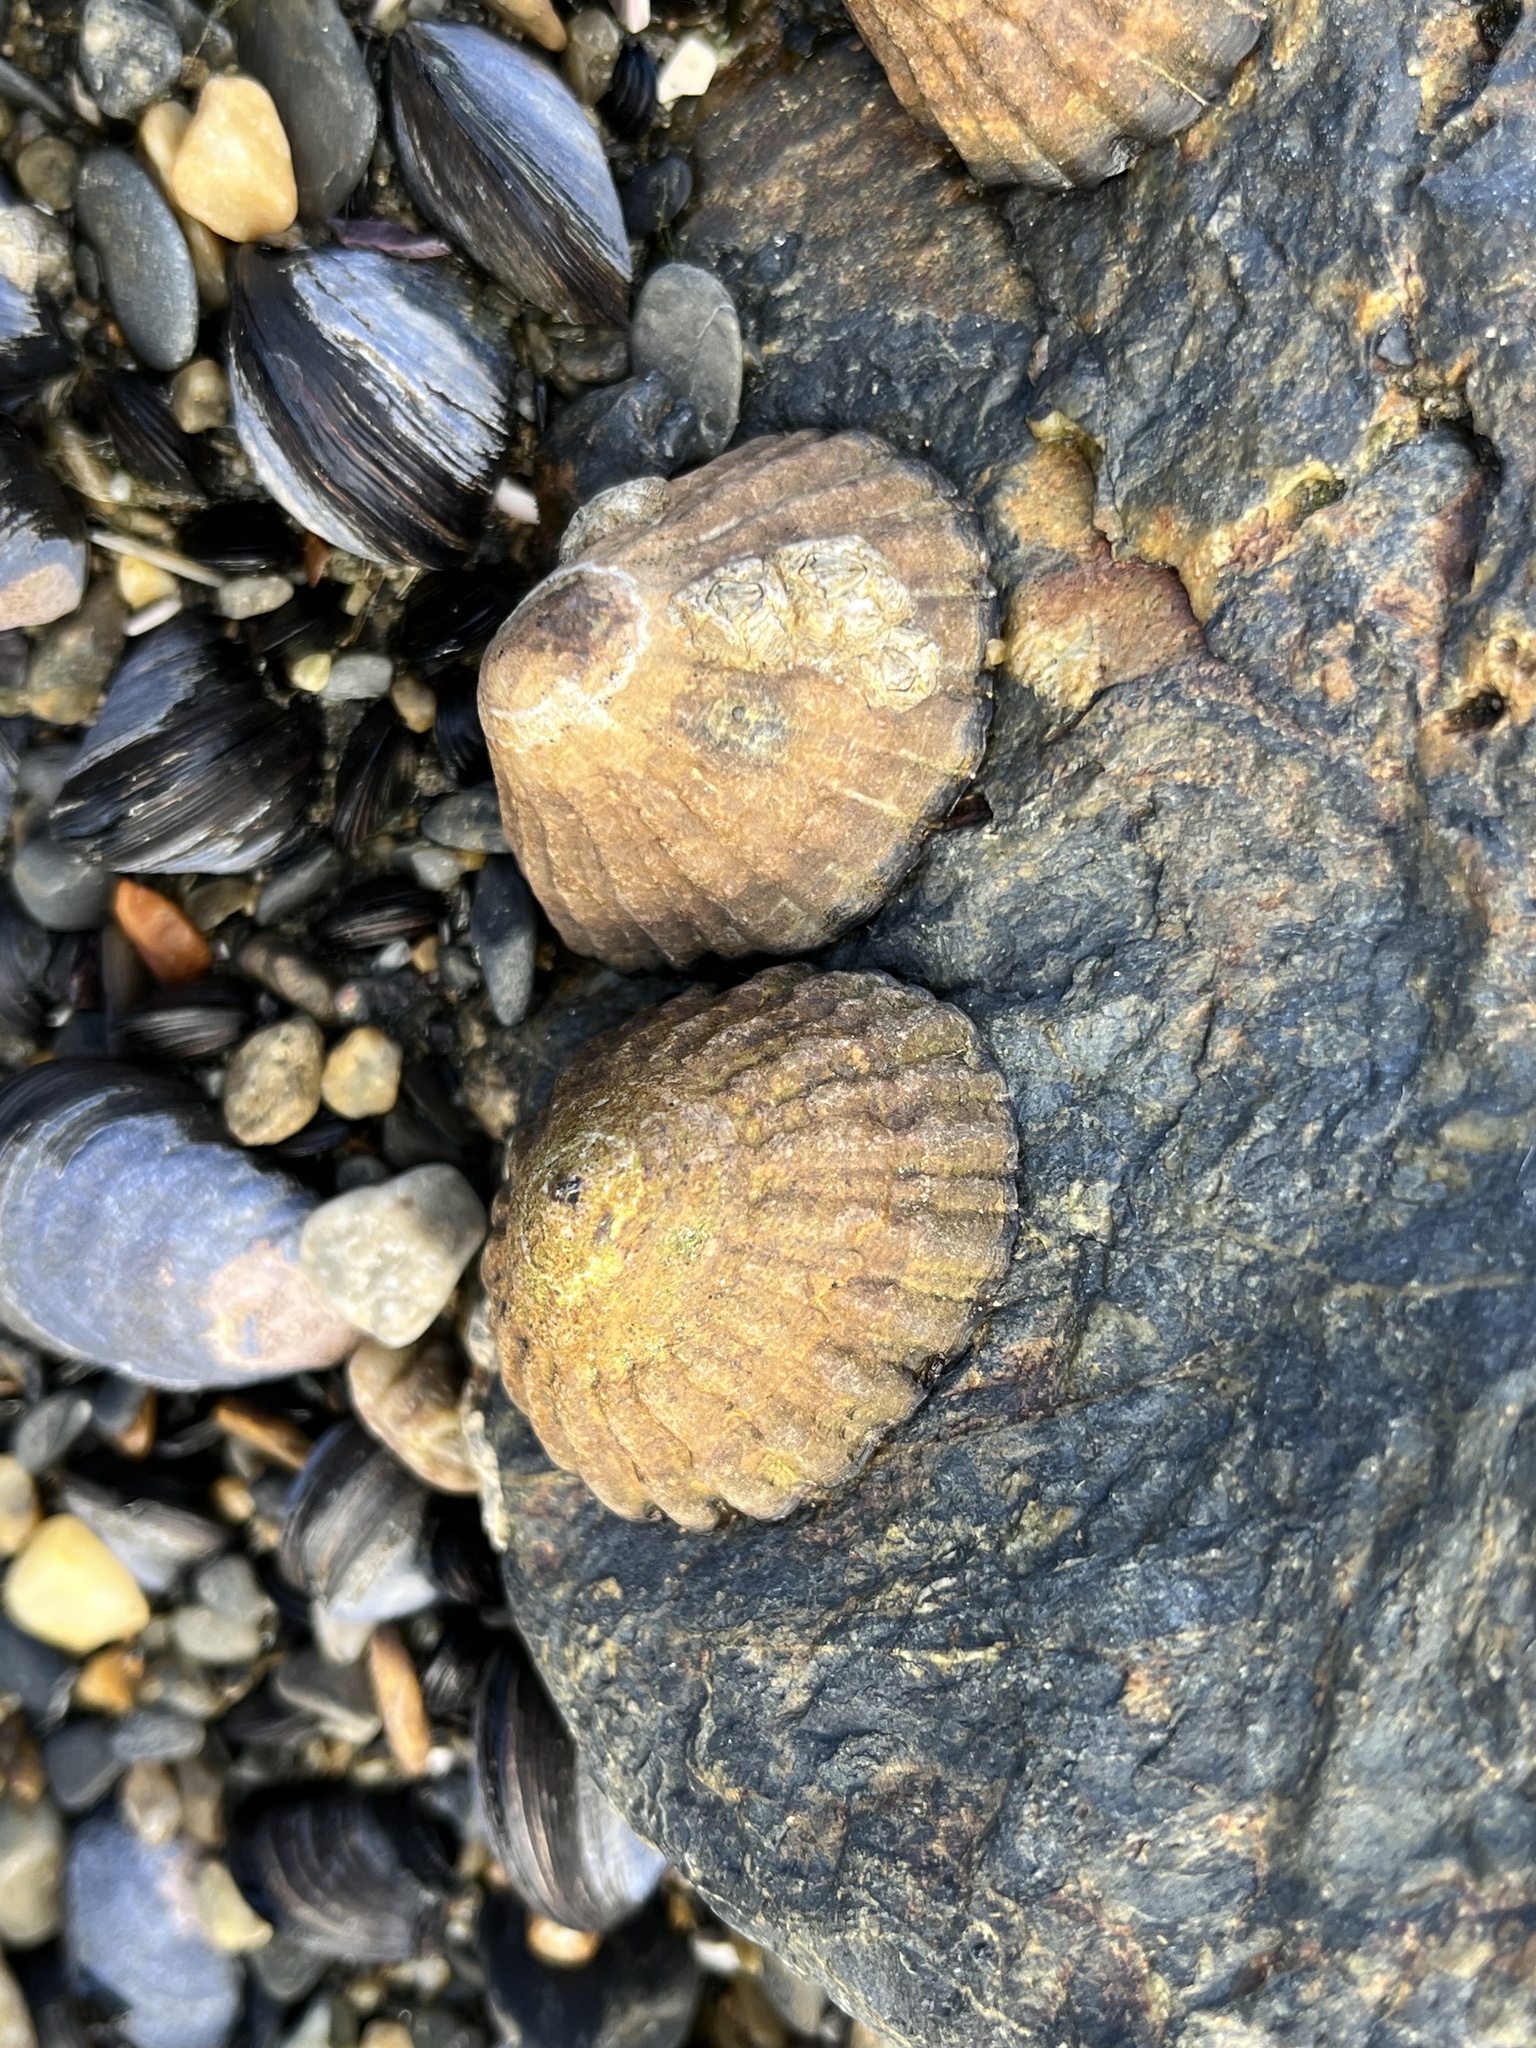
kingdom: Animalia
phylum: Mollusca
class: Gastropoda
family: Nacellidae
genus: Nacella
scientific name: Nacella magellanica
